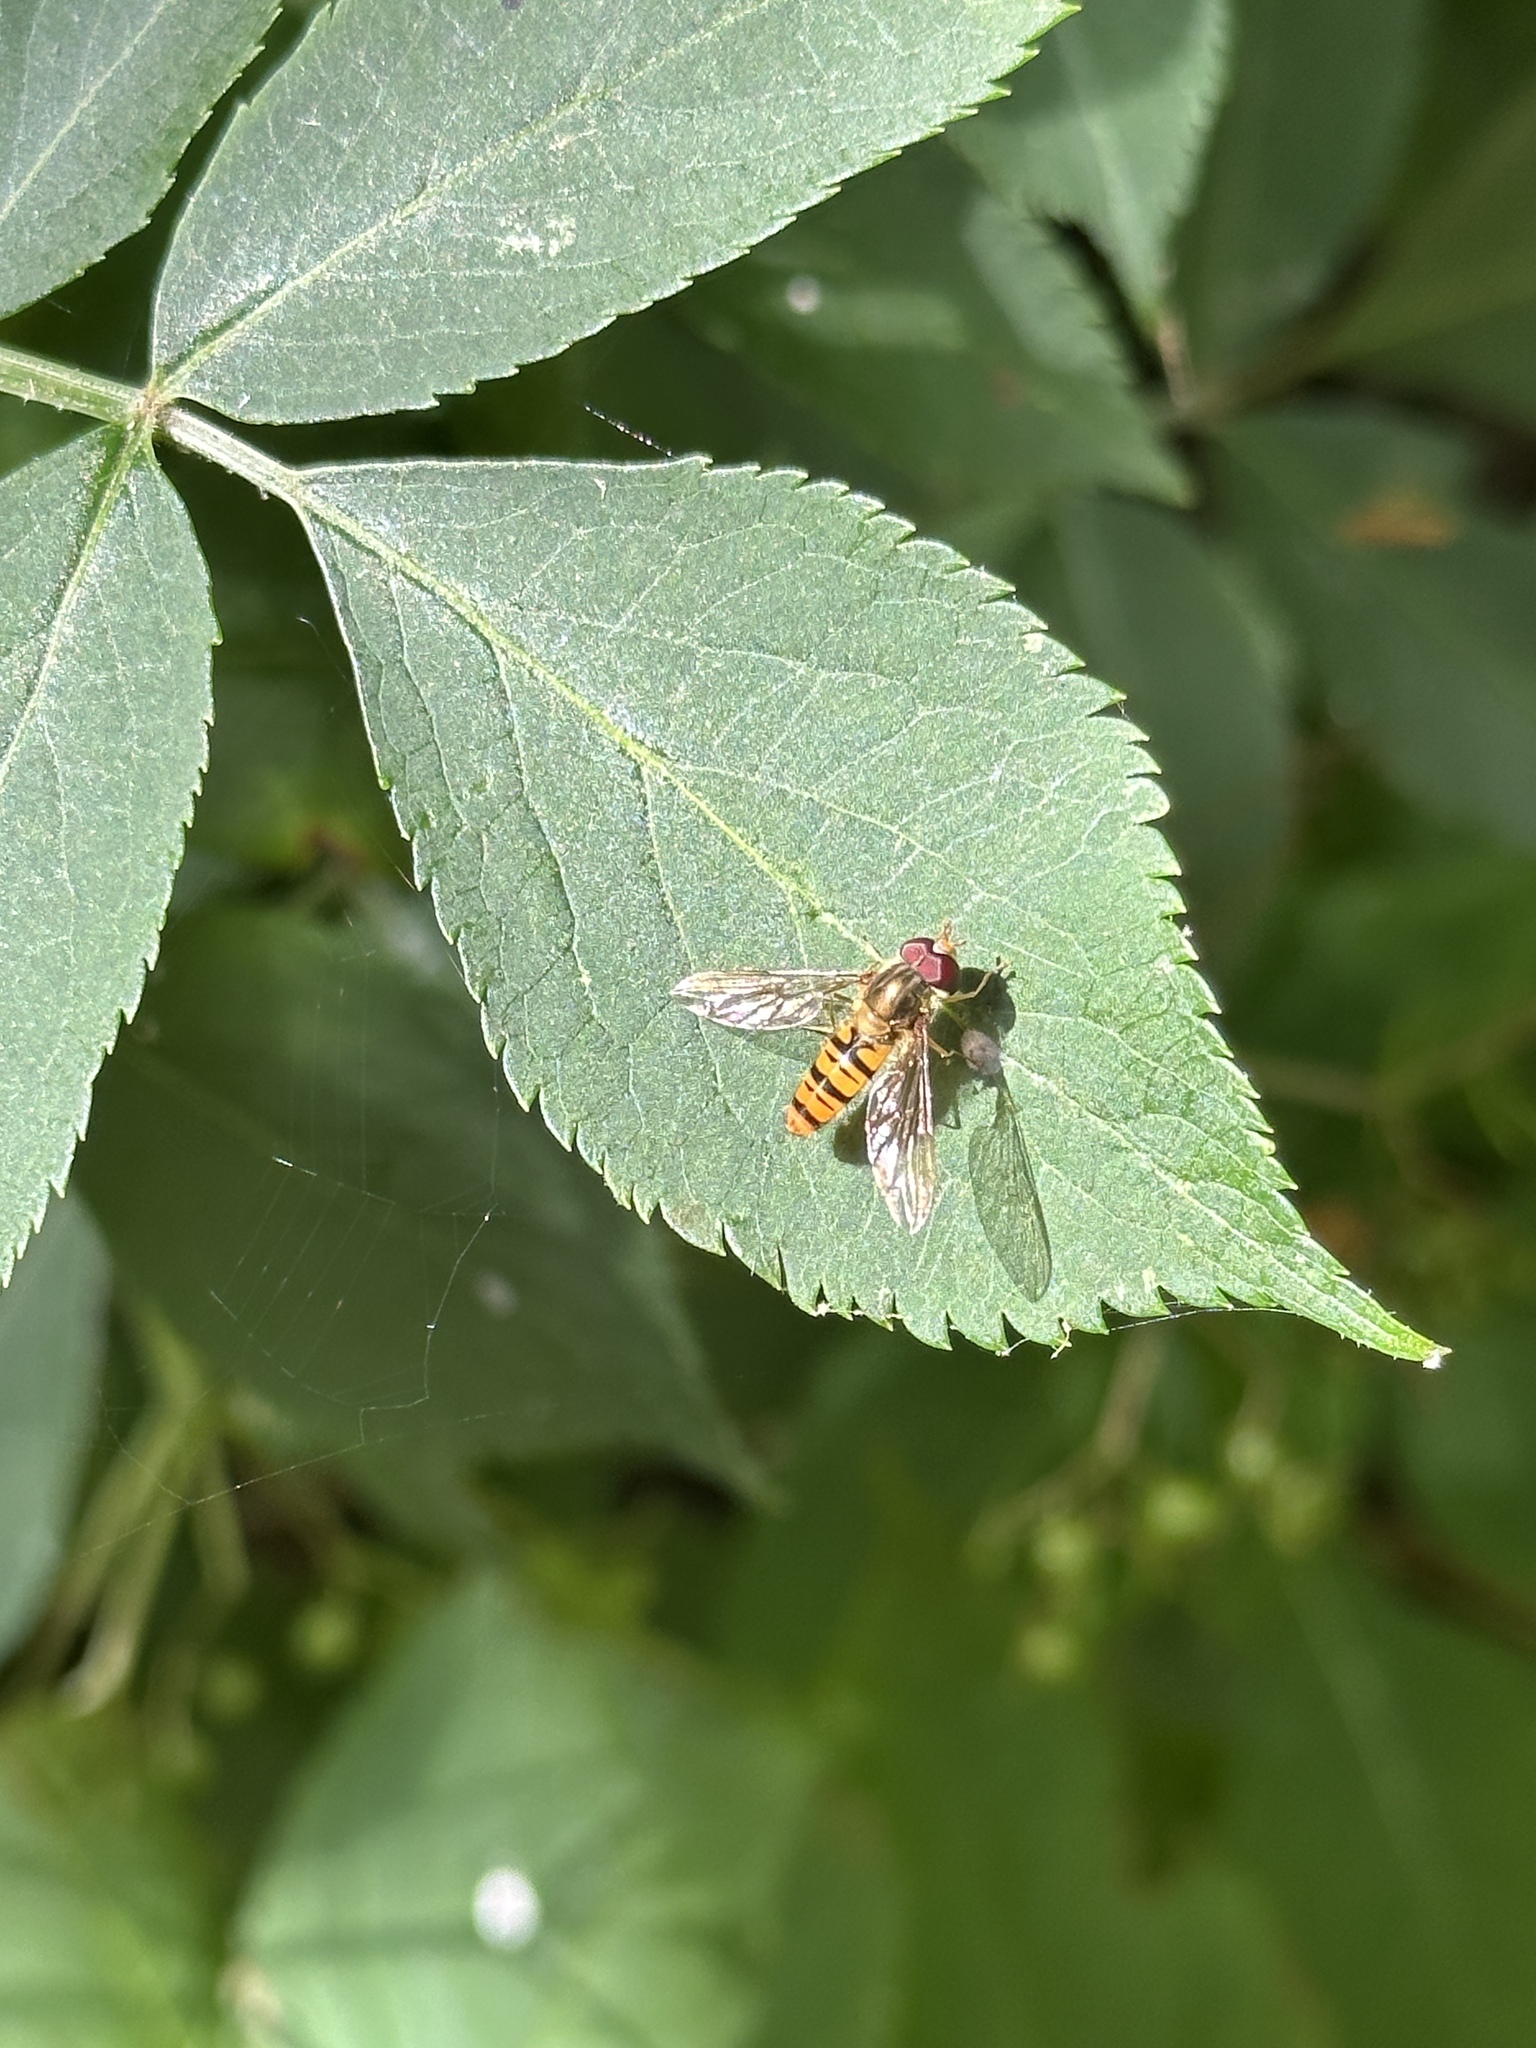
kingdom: Animalia
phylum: Arthropoda
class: Insecta
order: Diptera
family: Syrphidae
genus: Episyrphus
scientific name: Episyrphus balteatus
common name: Marmalade hoverfly
